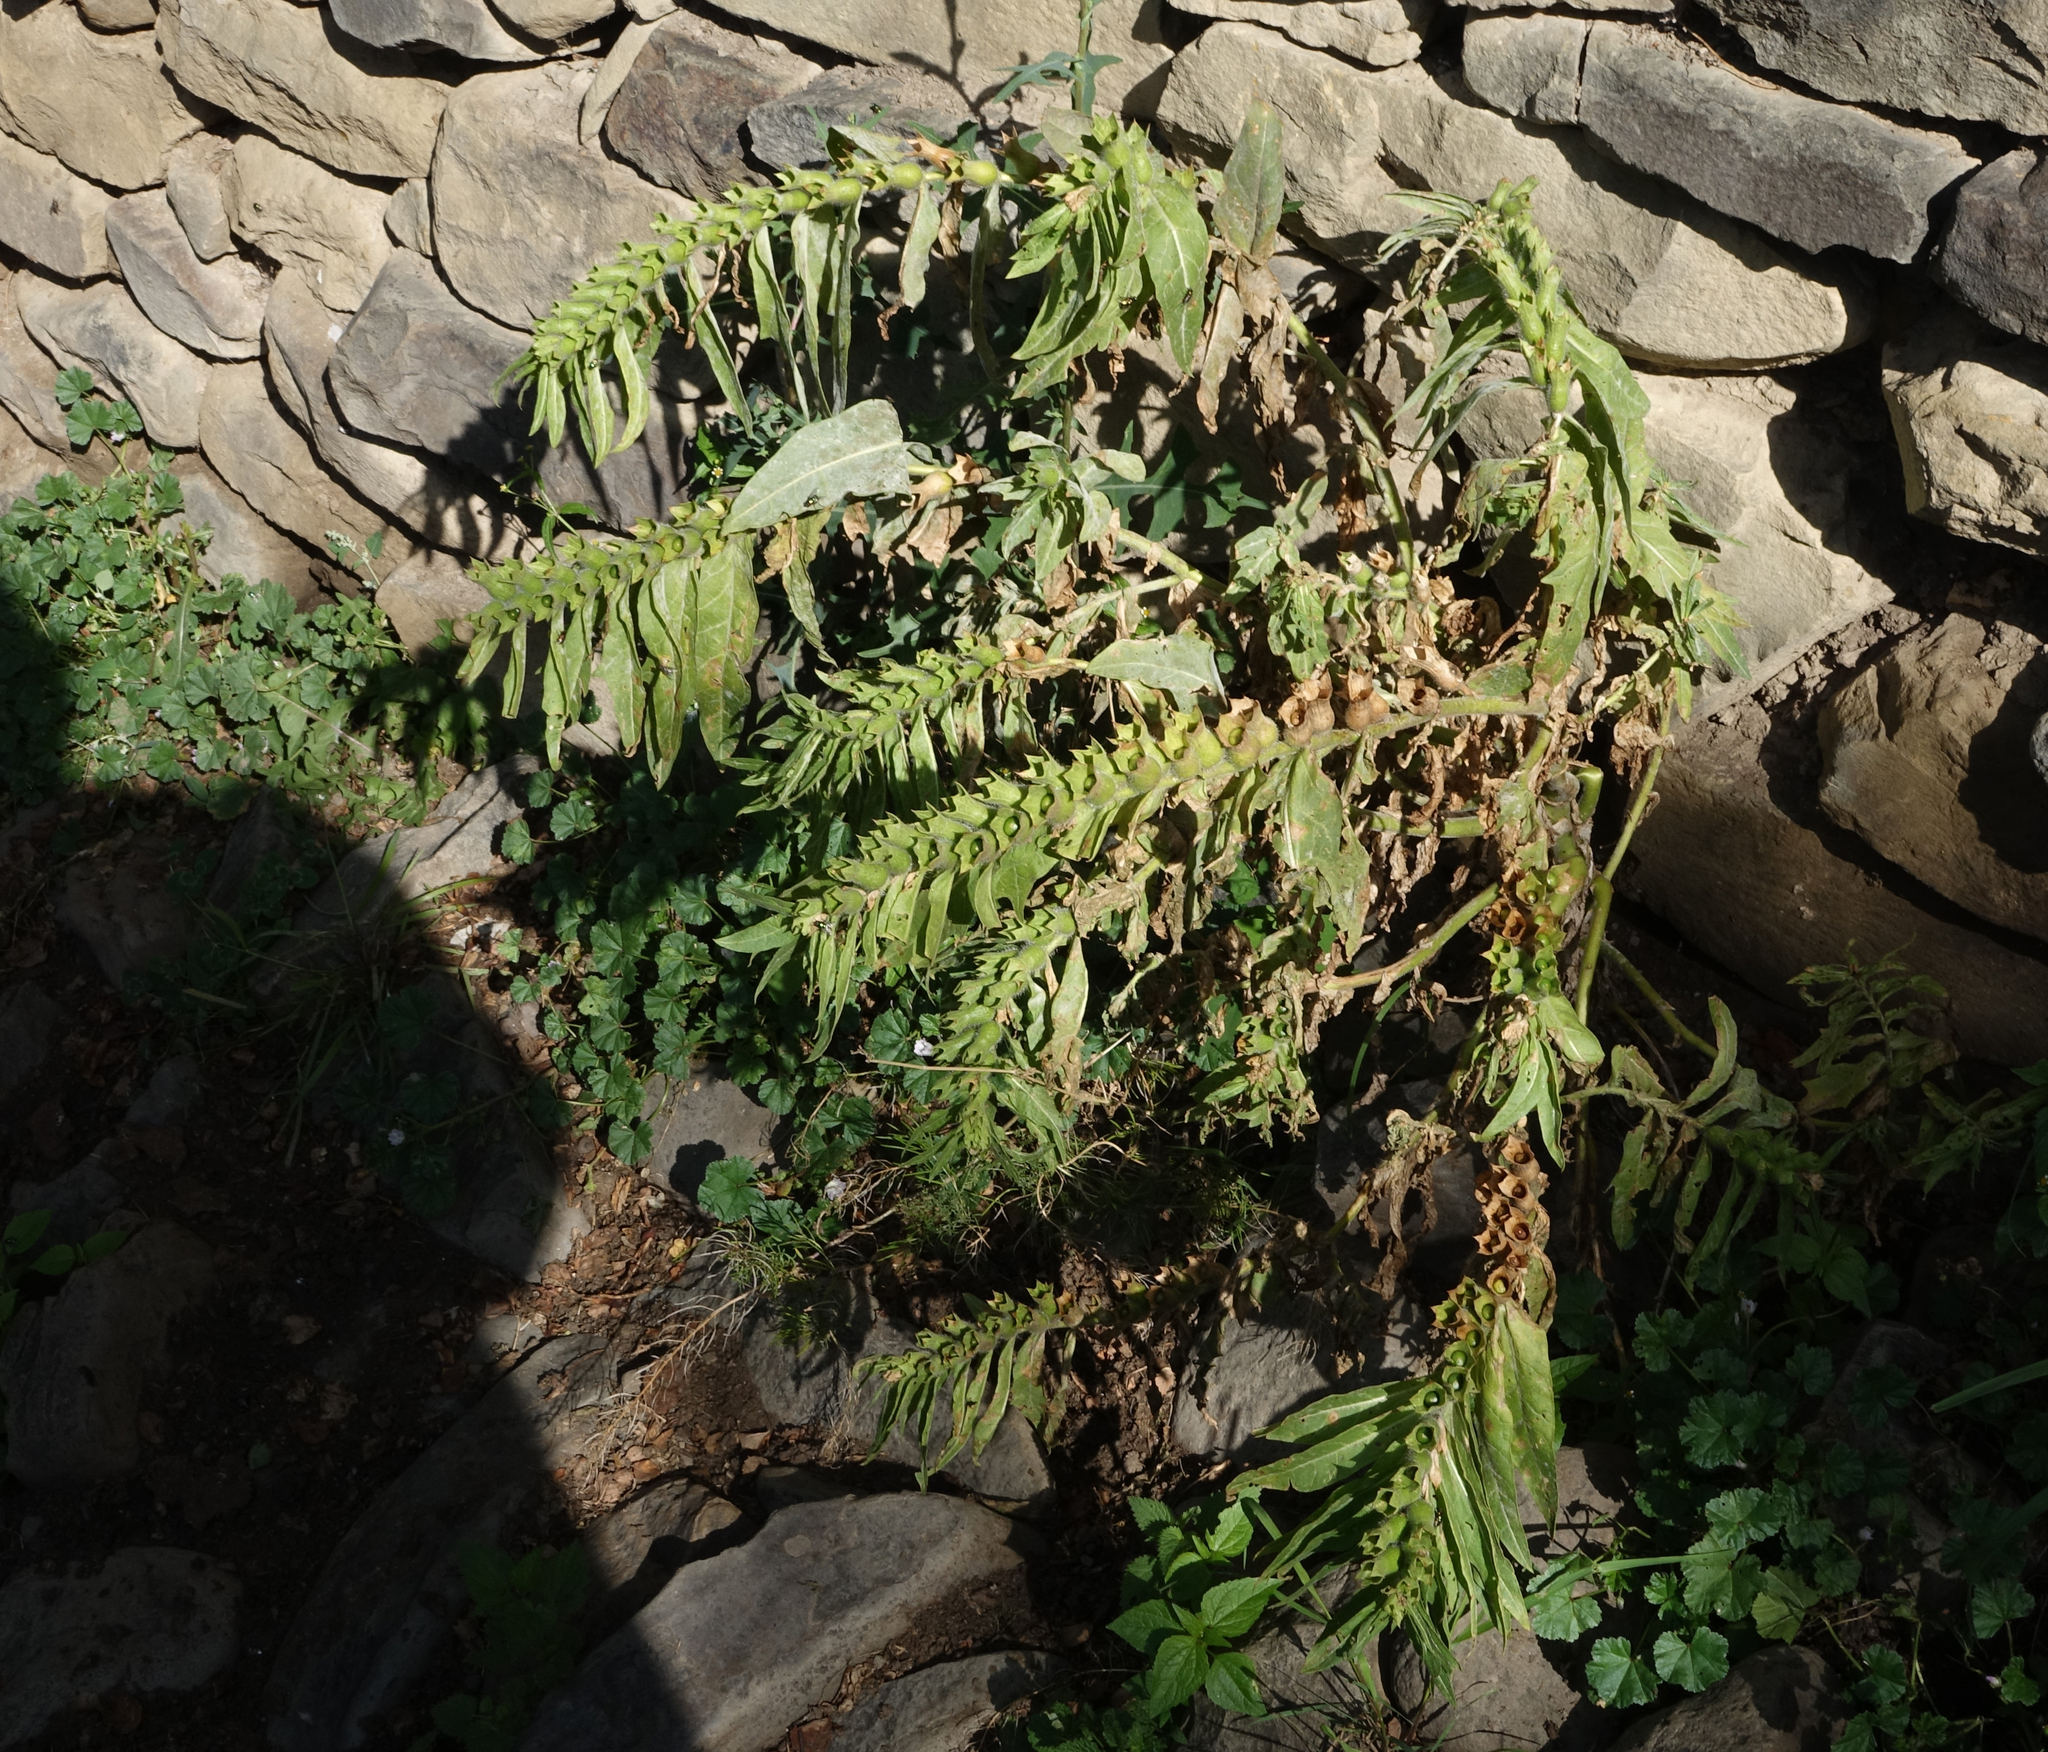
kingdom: Plantae
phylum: Tracheophyta
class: Magnoliopsida
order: Solanales
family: Solanaceae
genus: Hyoscyamus
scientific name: Hyoscyamus niger
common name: Henbane
